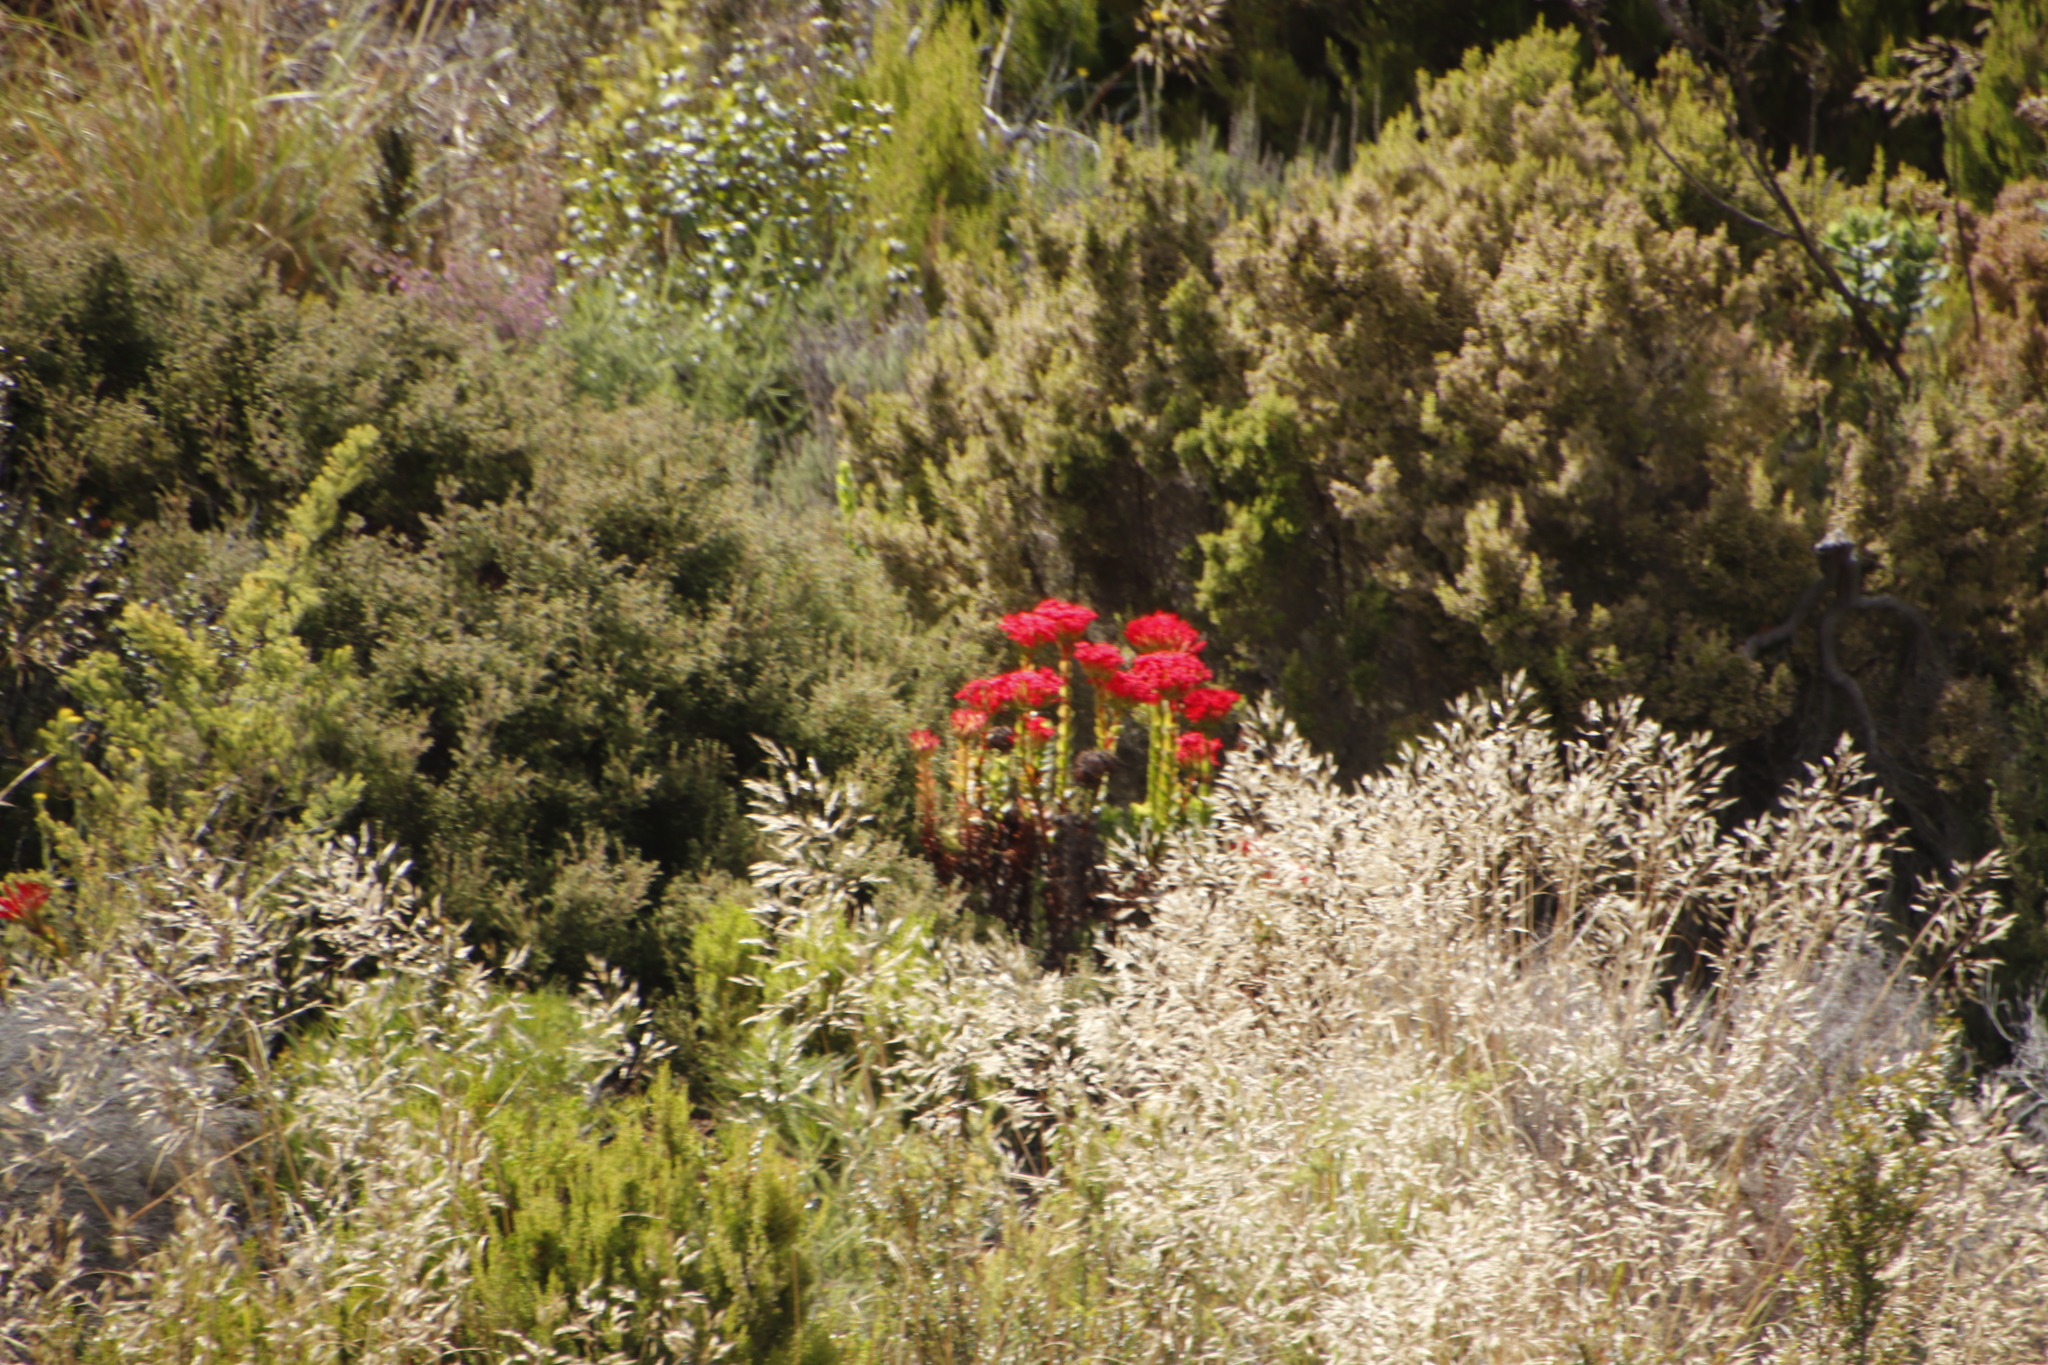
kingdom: Plantae
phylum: Tracheophyta
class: Magnoliopsida
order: Saxifragales
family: Crassulaceae
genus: Crassula
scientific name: Crassula coccinea
